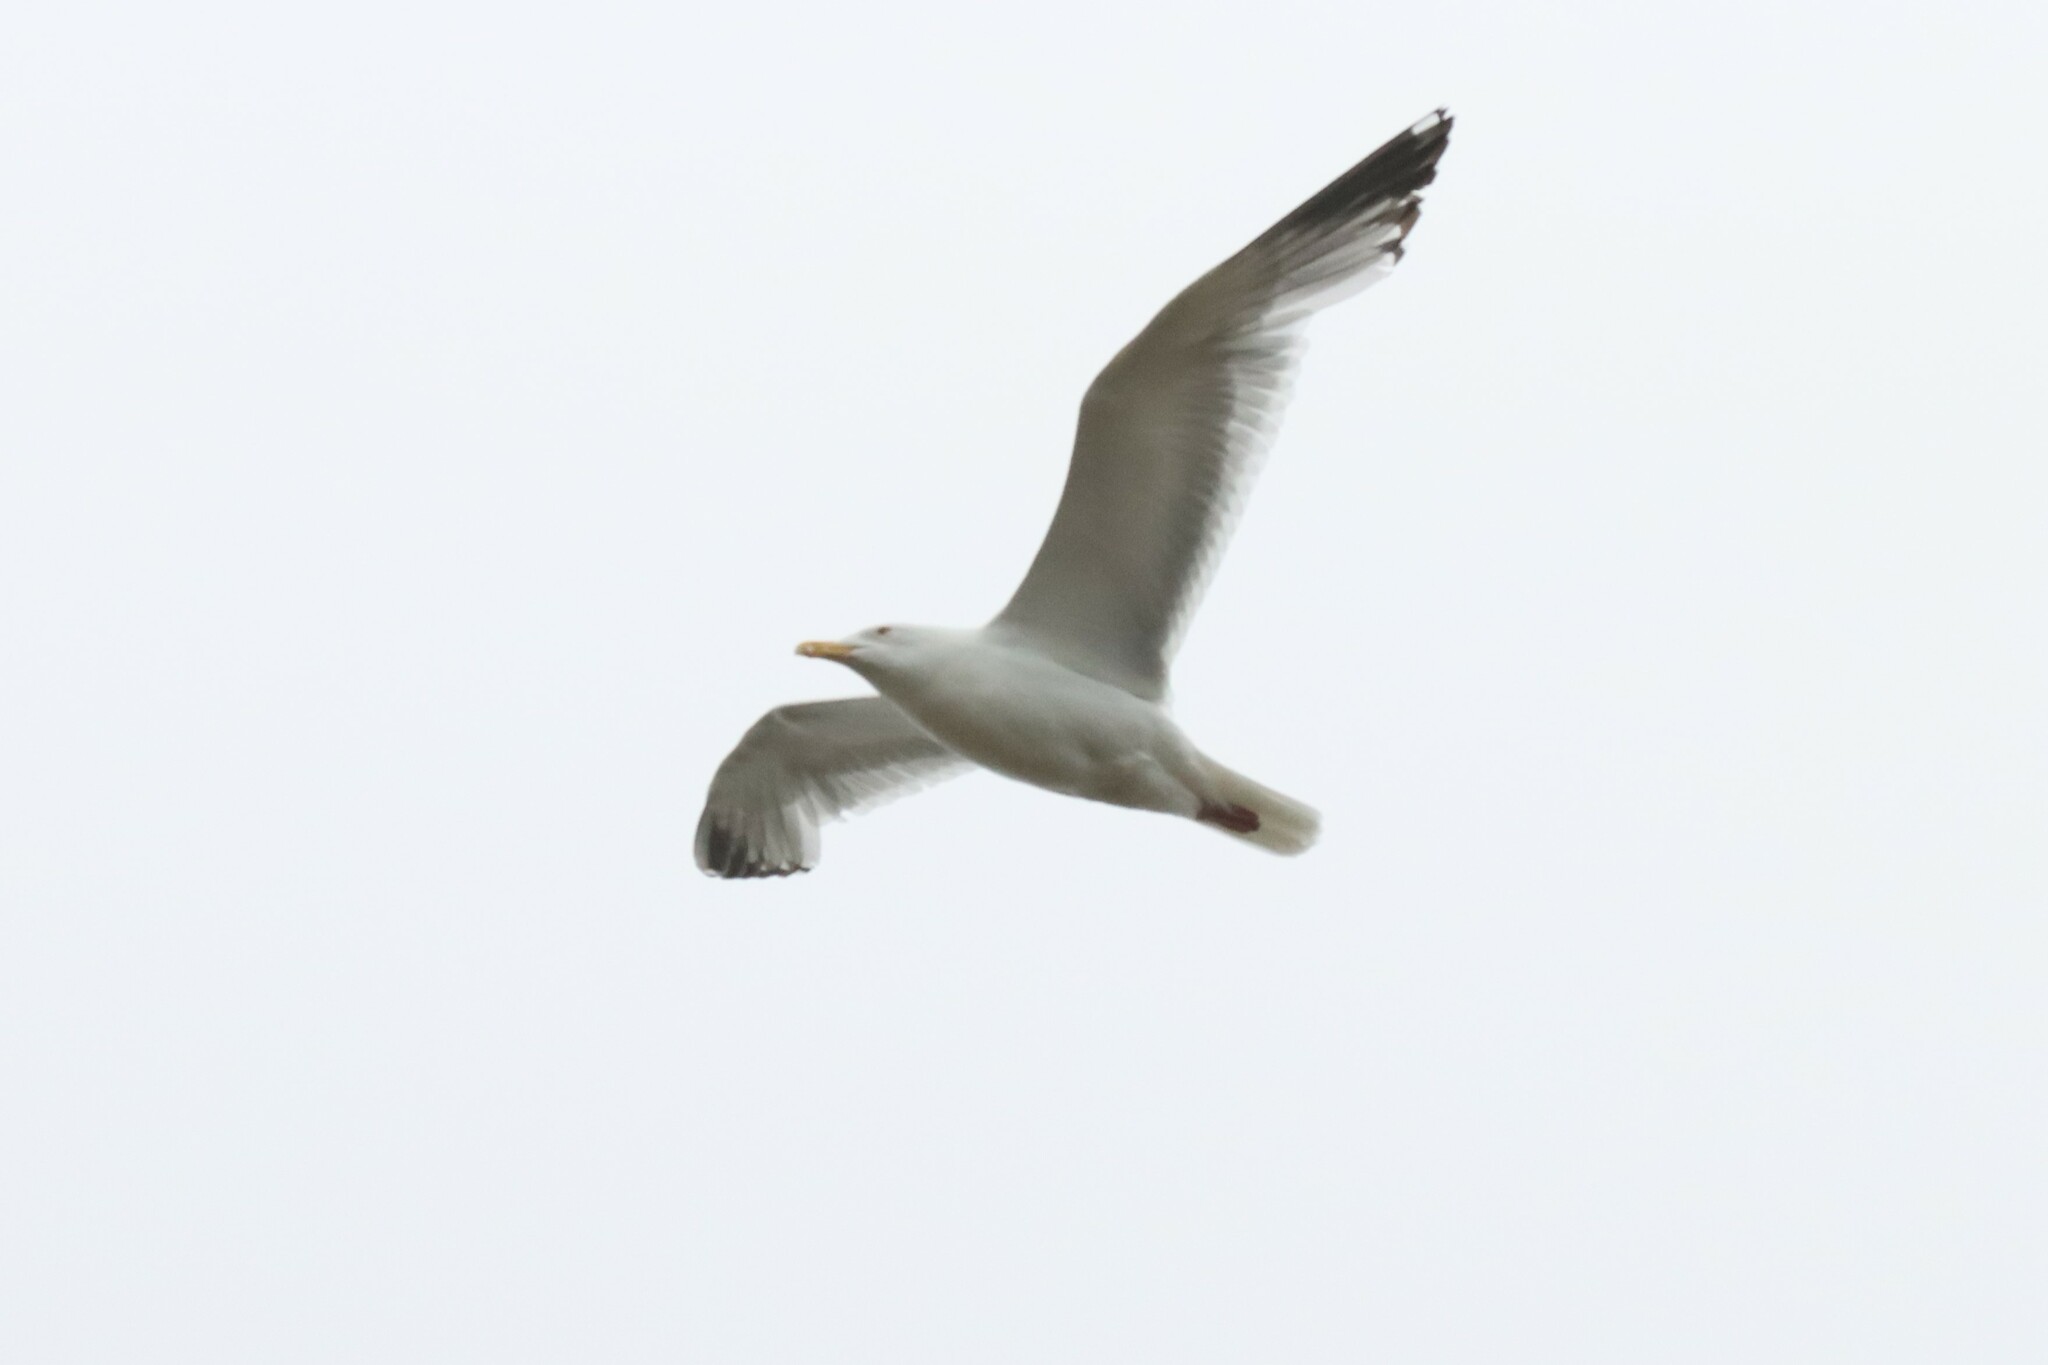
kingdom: Animalia
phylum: Chordata
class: Aves
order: Charadriiformes
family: Laridae
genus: Larus
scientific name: Larus argentatus
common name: Herring gull
